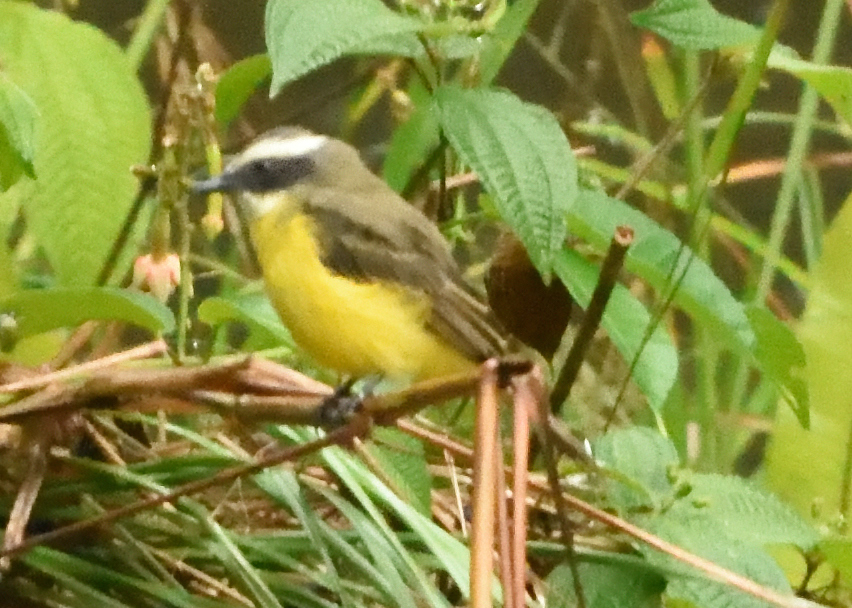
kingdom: Animalia
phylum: Chordata
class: Aves
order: Passeriformes
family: Tyrannidae
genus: Myiozetetes
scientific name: Myiozetetes similis
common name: Social flycatcher
